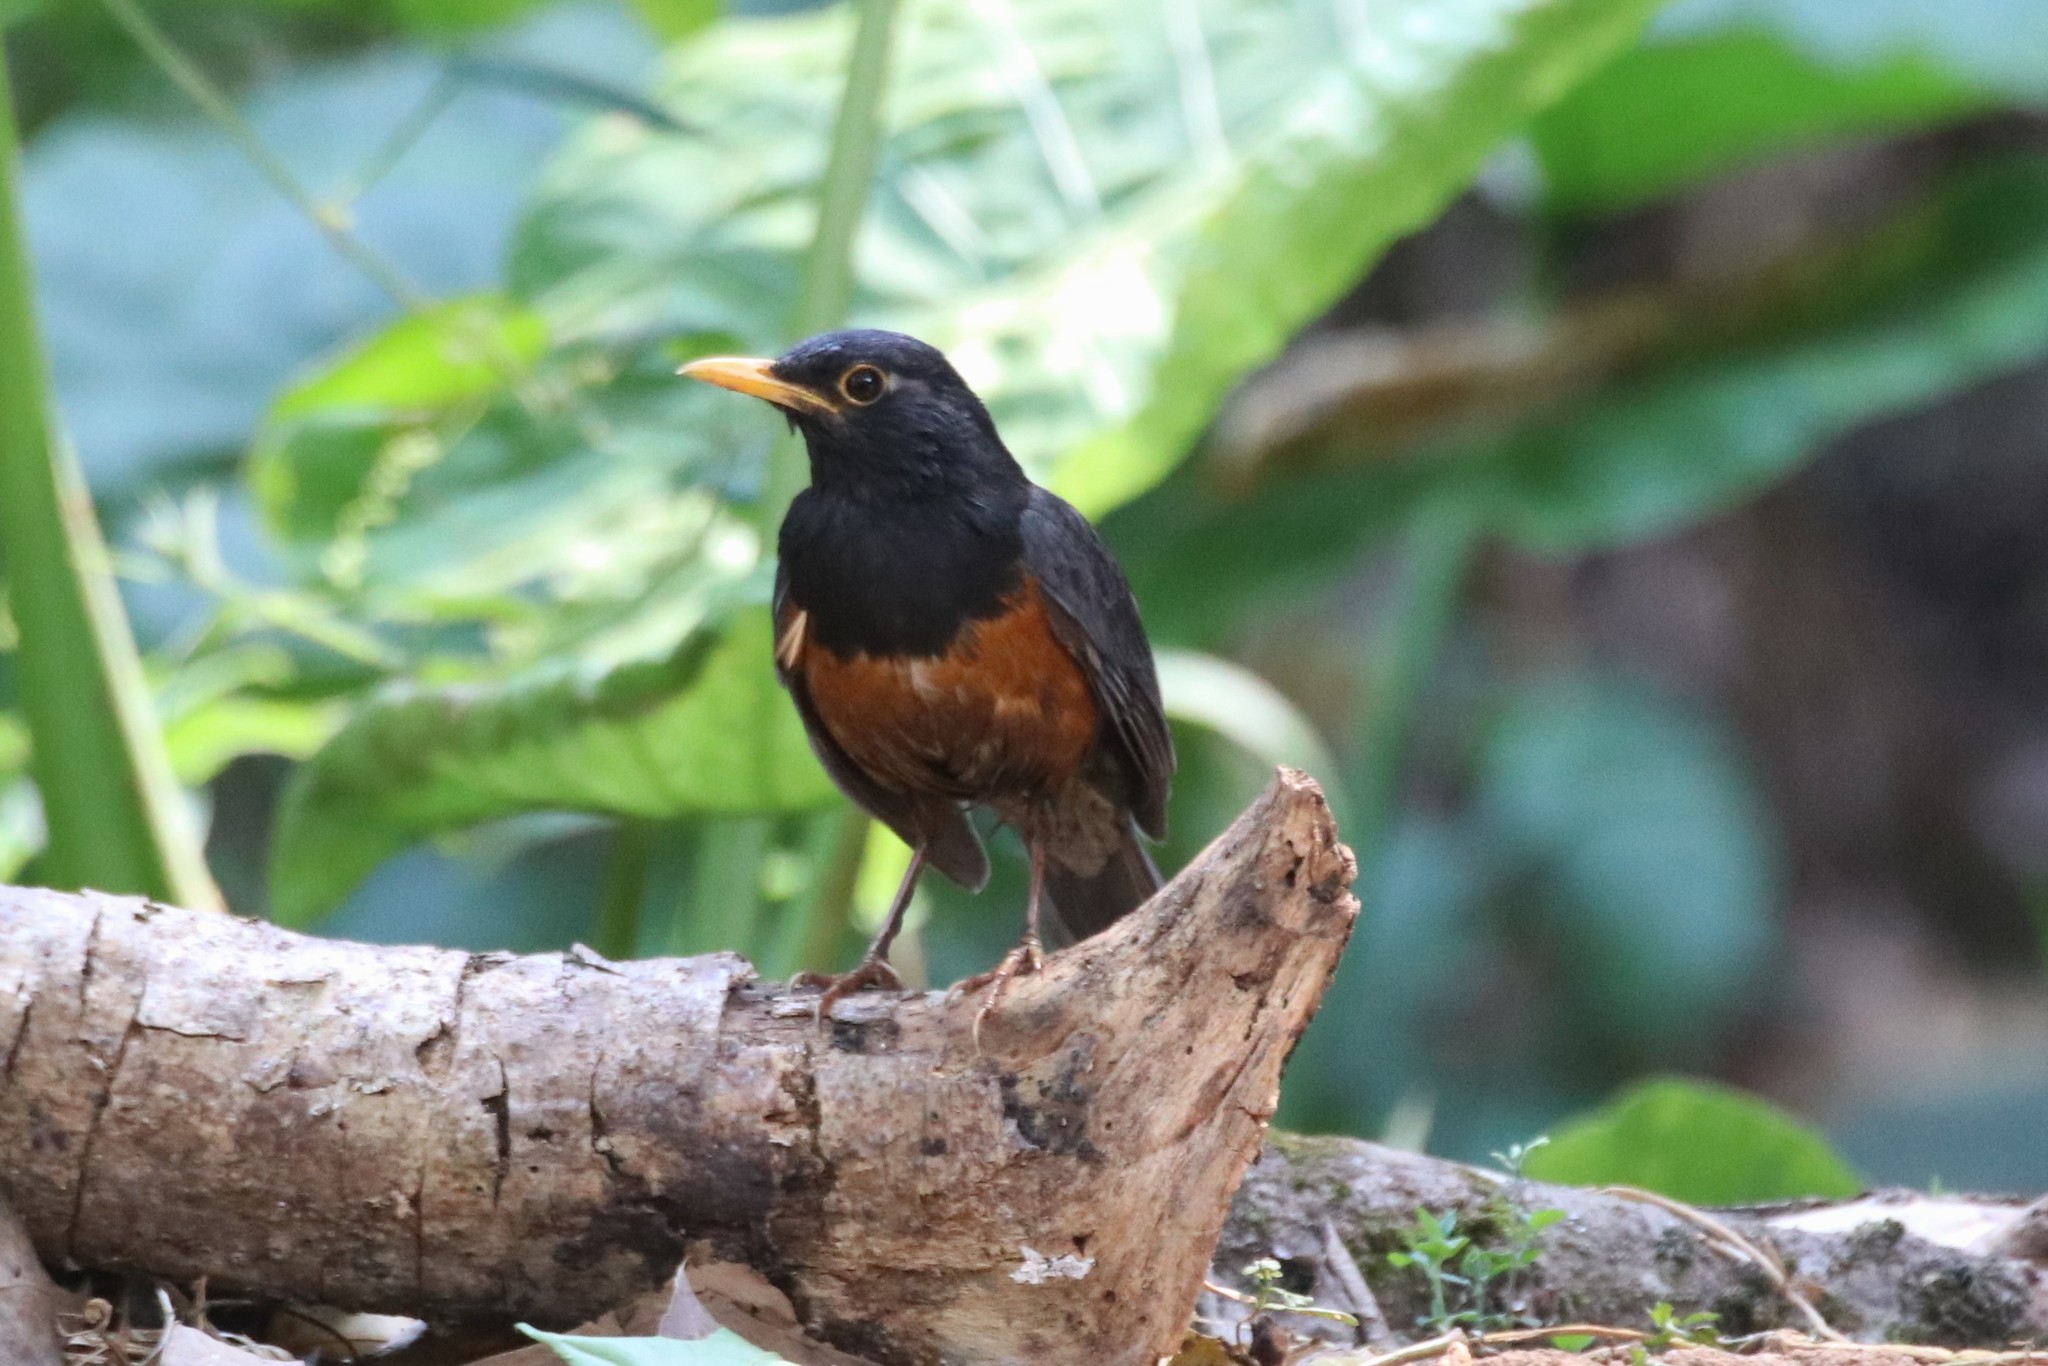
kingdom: Animalia
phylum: Chordata
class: Aves
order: Passeriformes
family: Turdidae
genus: Turdus
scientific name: Turdus dissimilis
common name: Black-breasted thrush
